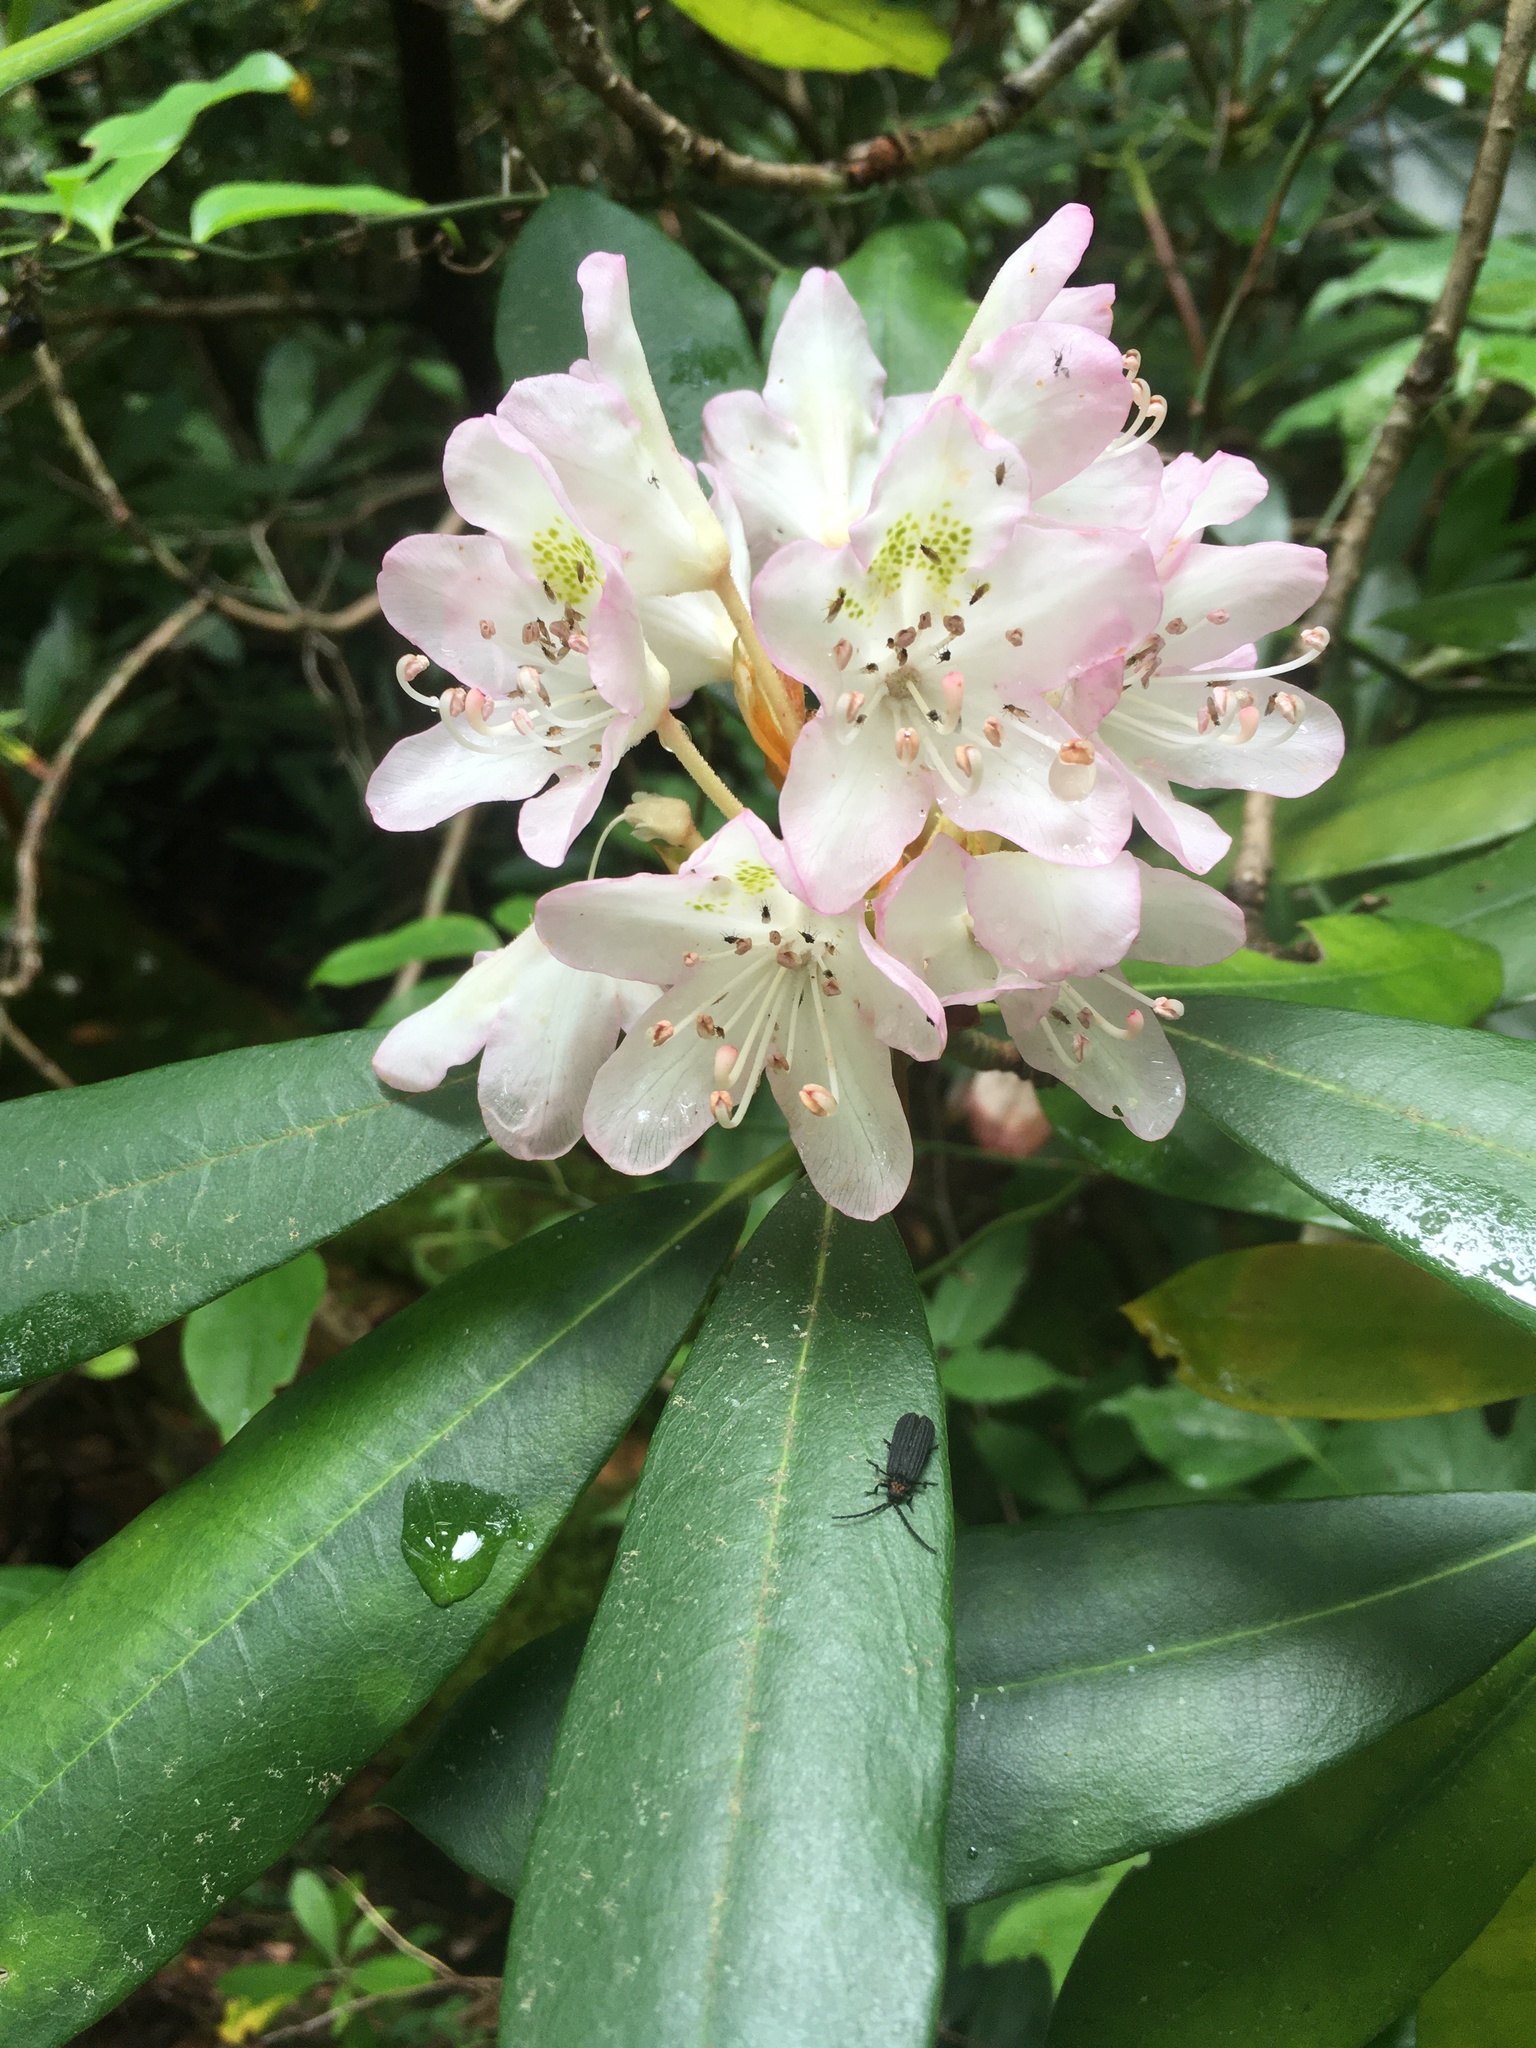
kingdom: Plantae
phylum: Tracheophyta
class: Magnoliopsida
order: Ericales
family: Ericaceae
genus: Rhododendron
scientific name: Rhododendron maximum
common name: Great rhododendron
